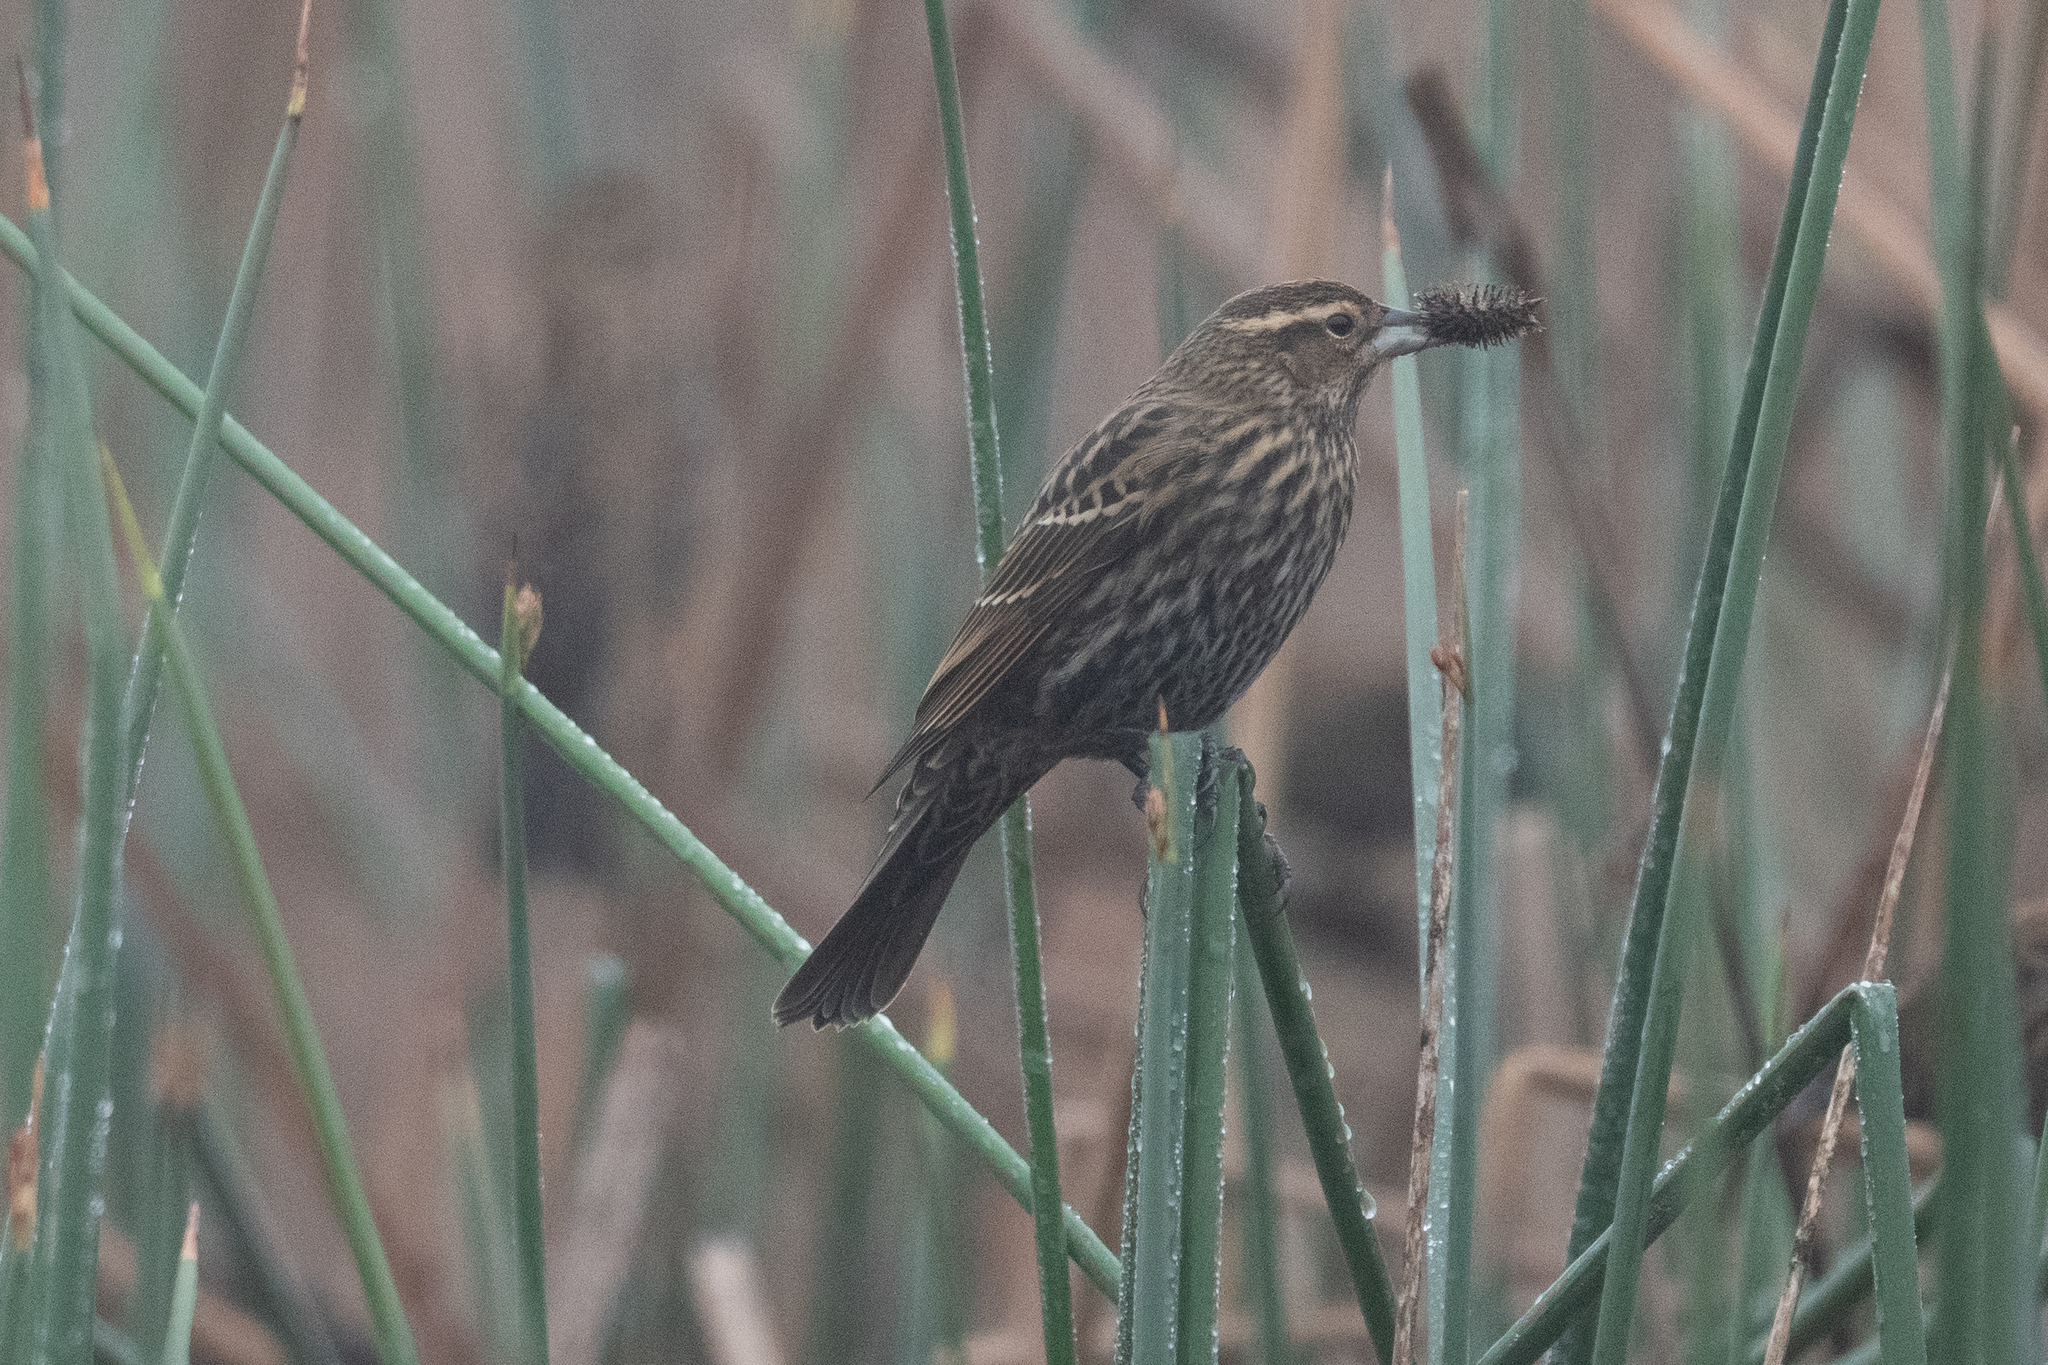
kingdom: Animalia
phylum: Chordata
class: Aves
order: Passeriformes
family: Icteridae
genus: Agelaius
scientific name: Agelaius phoeniceus
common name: Red-winged blackbird
